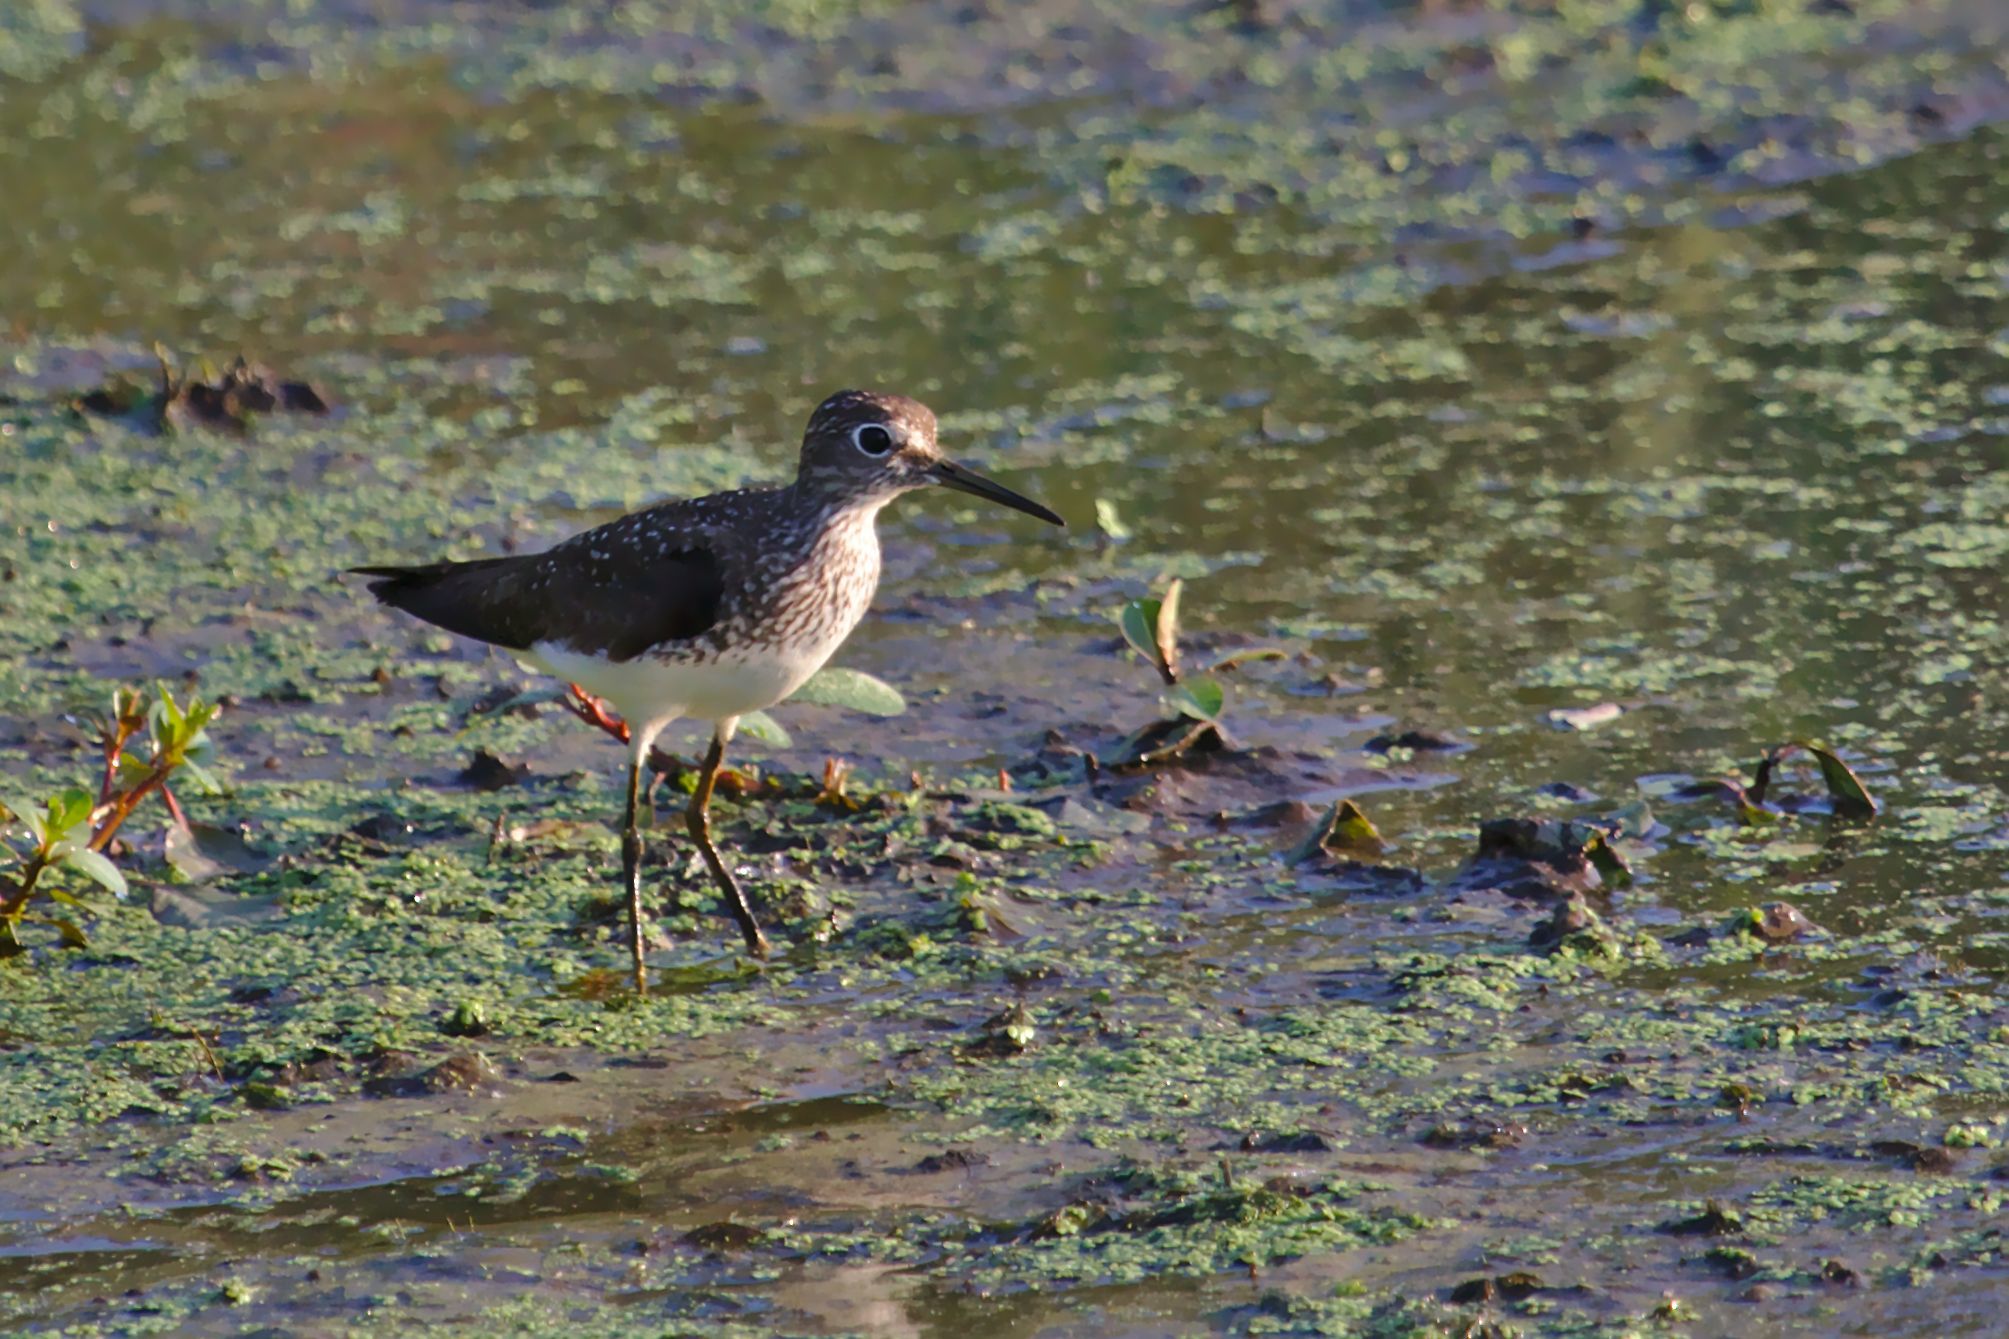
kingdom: Animalia
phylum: Chordata
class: Aves
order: Charadriiformes
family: Scolopacidae
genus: Tringa
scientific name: Tringa solitaria
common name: Solitary sandpiper
